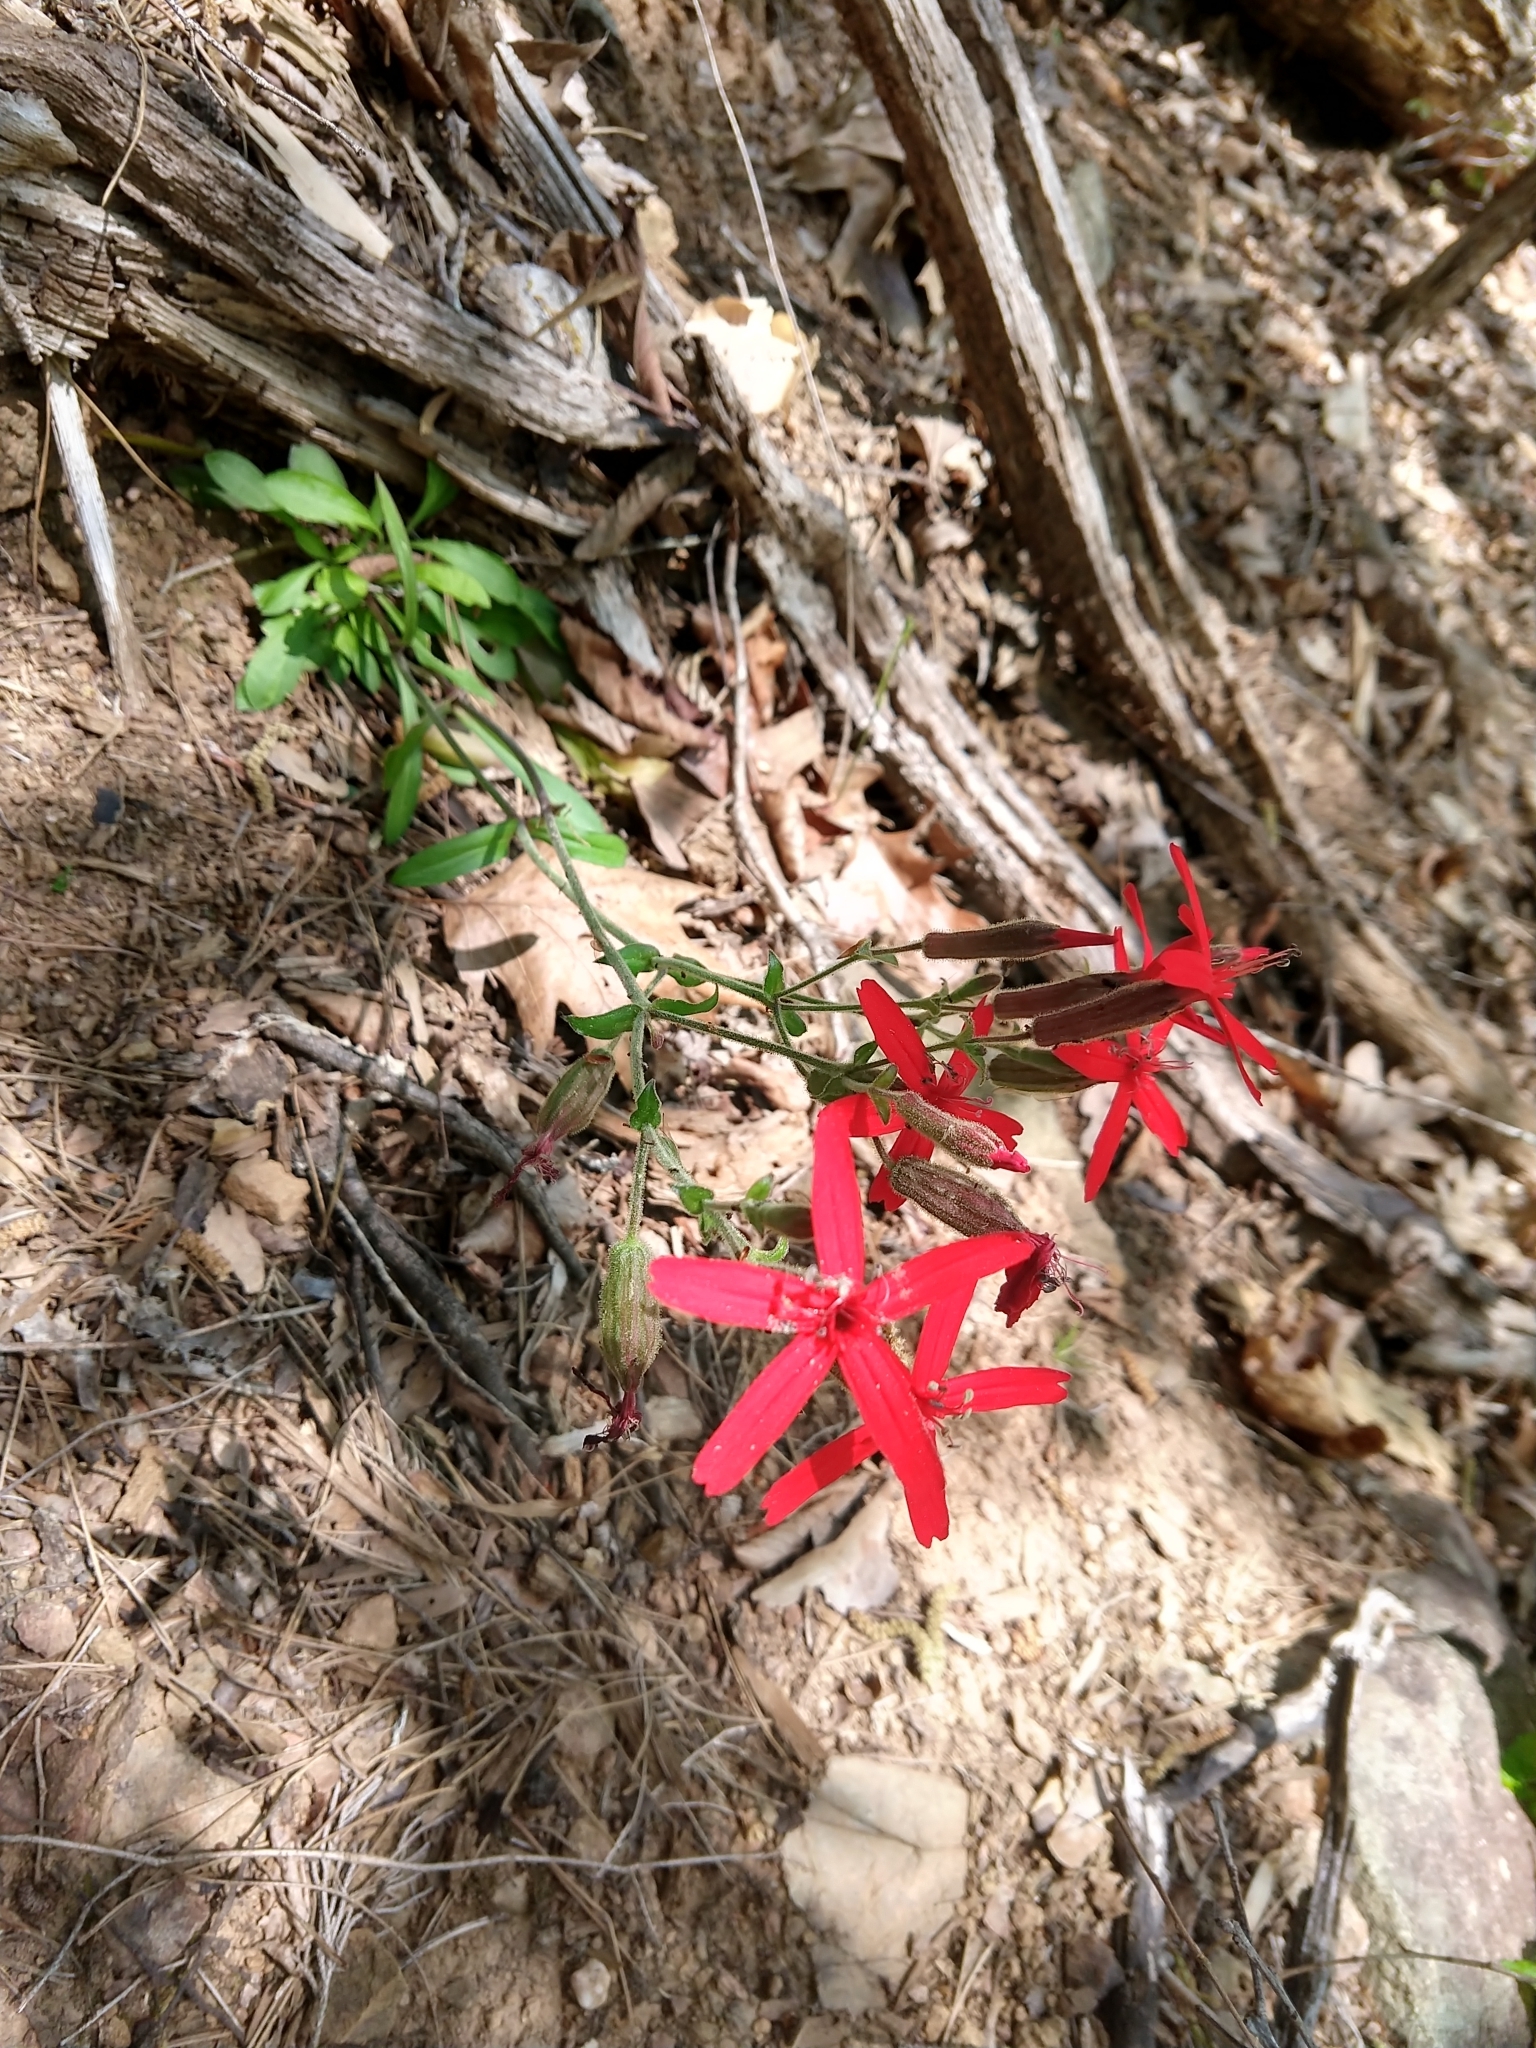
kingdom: Plantae
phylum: Tracheophyta
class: Magnoliopsida
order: Caryophyllales
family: Caryophyllaceae
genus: Silene
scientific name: Silene virginica
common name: Fire-pink
